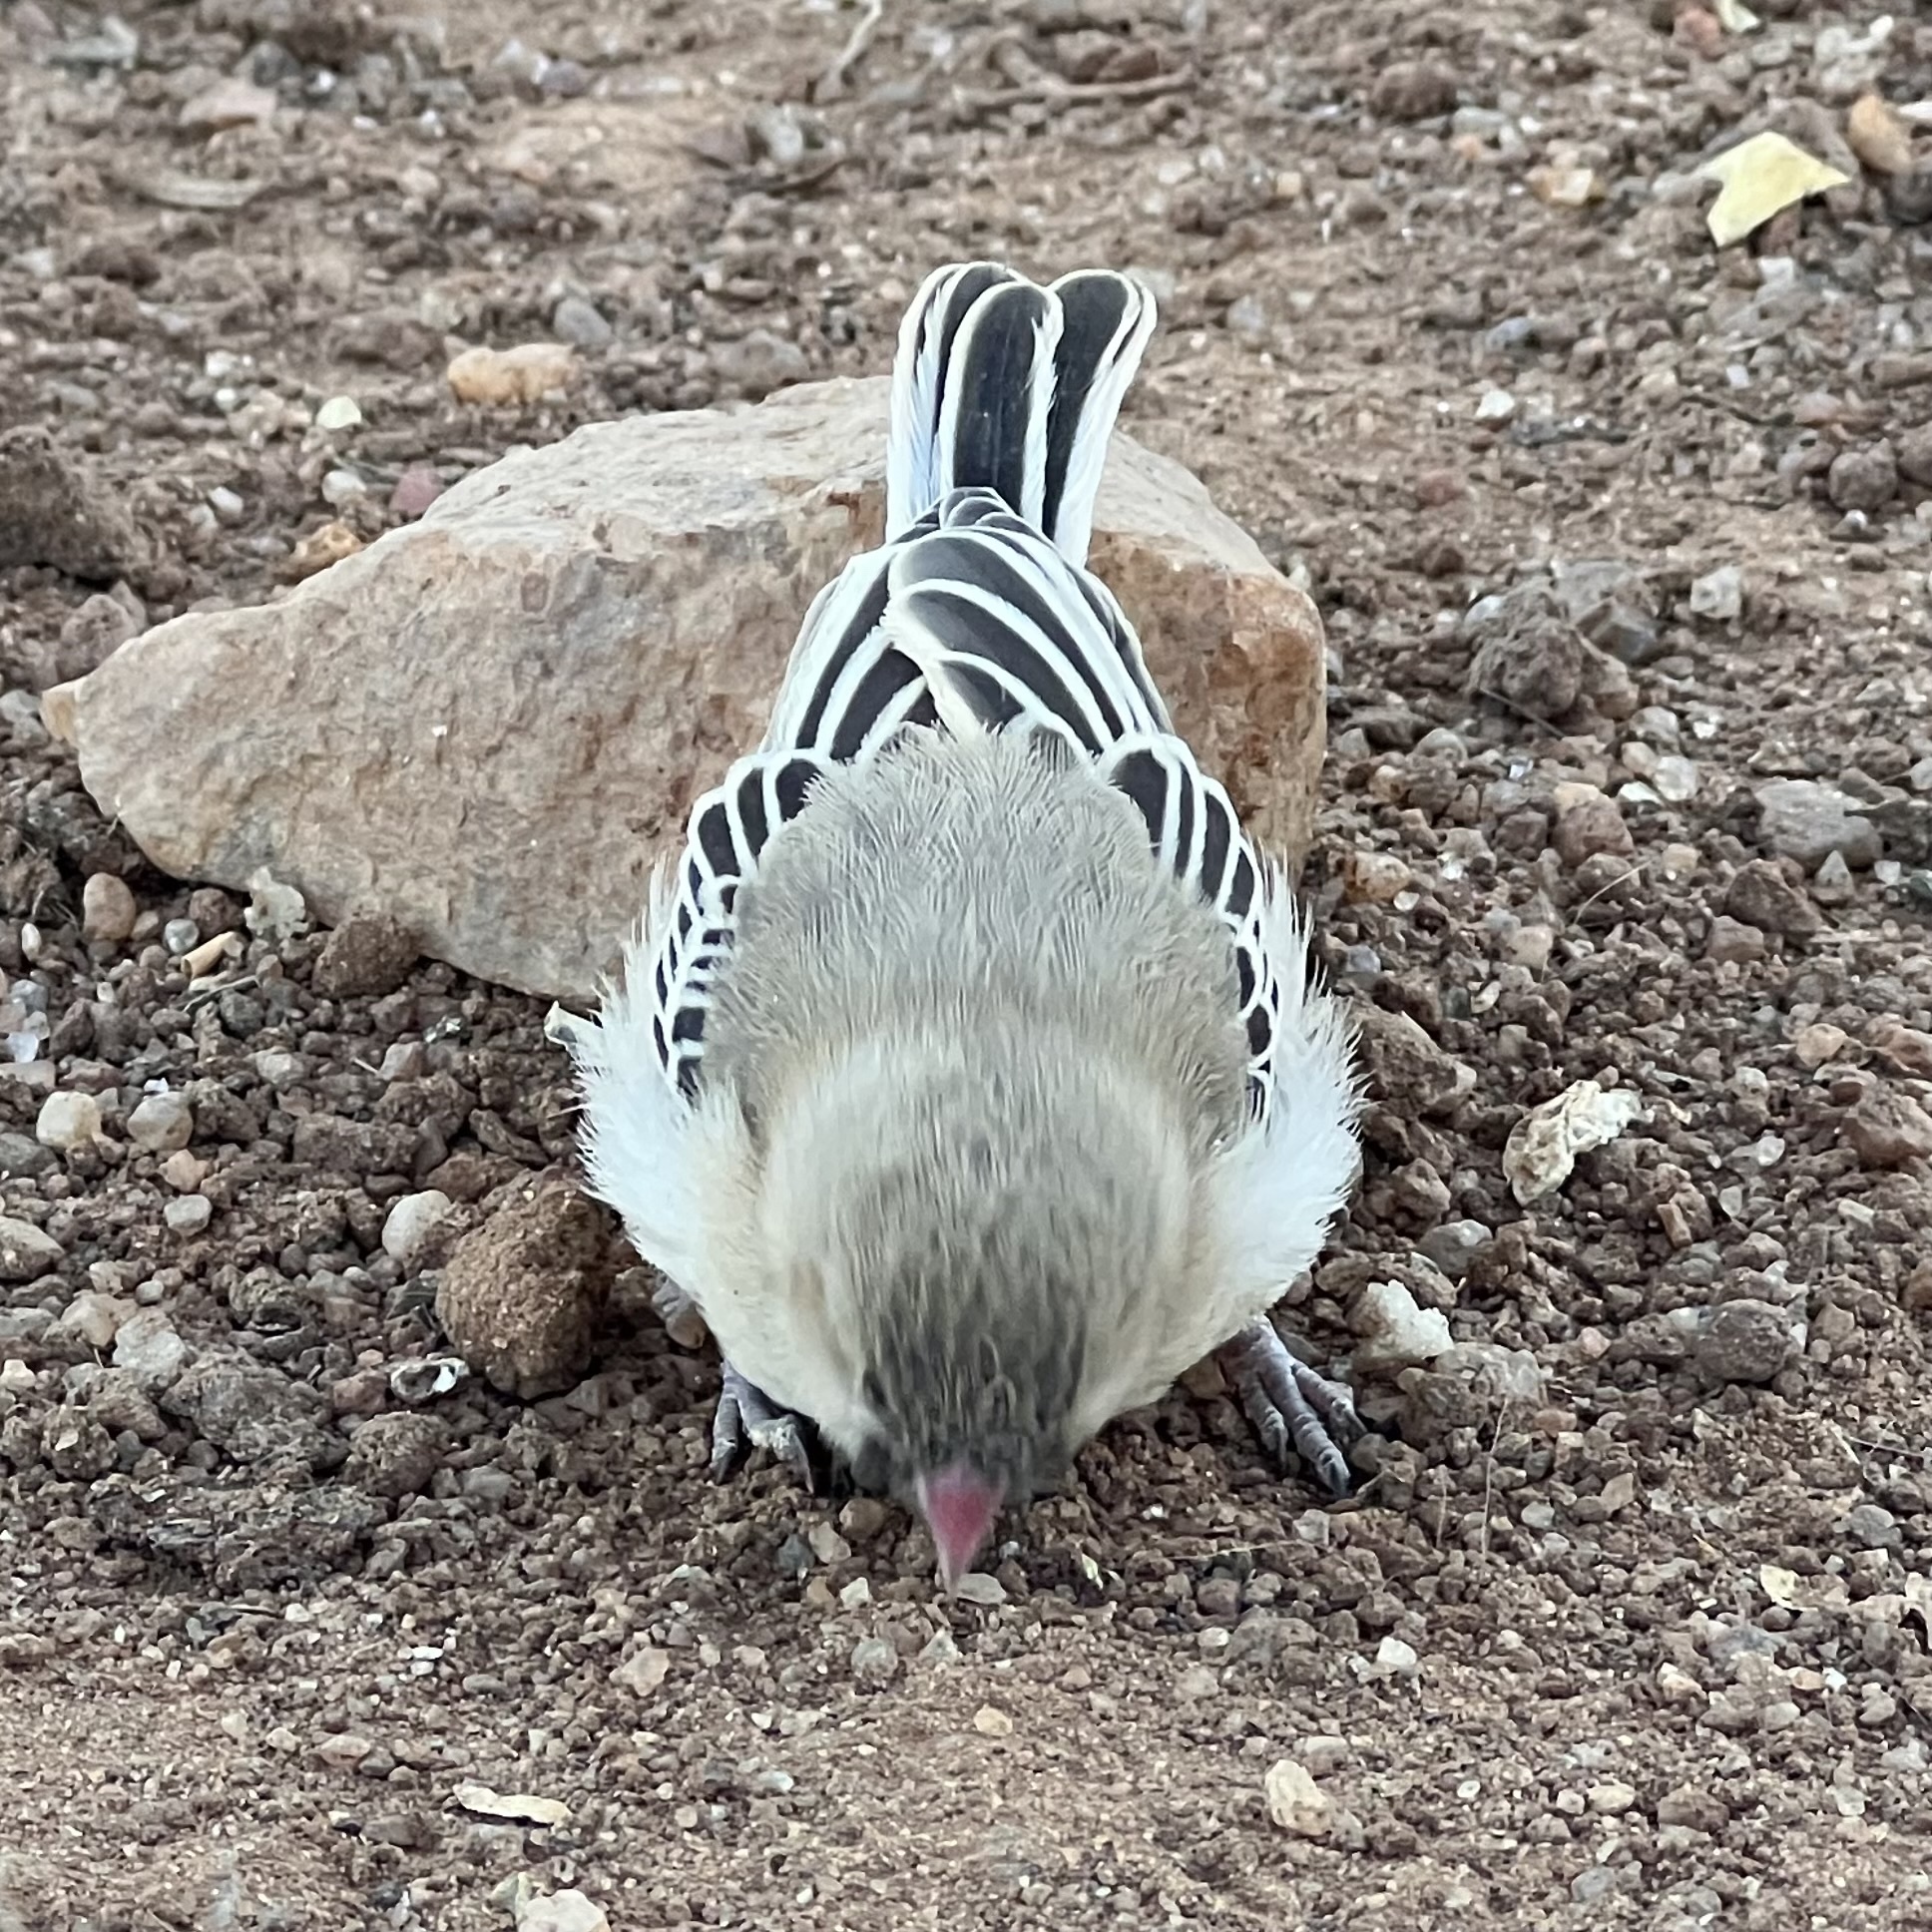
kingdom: Animalia
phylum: Chordata
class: Aves
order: Passeriformes
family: Ploceidae
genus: Sporopipes
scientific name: Sporopipes squamifrons
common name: Scaly-feathered weaver
